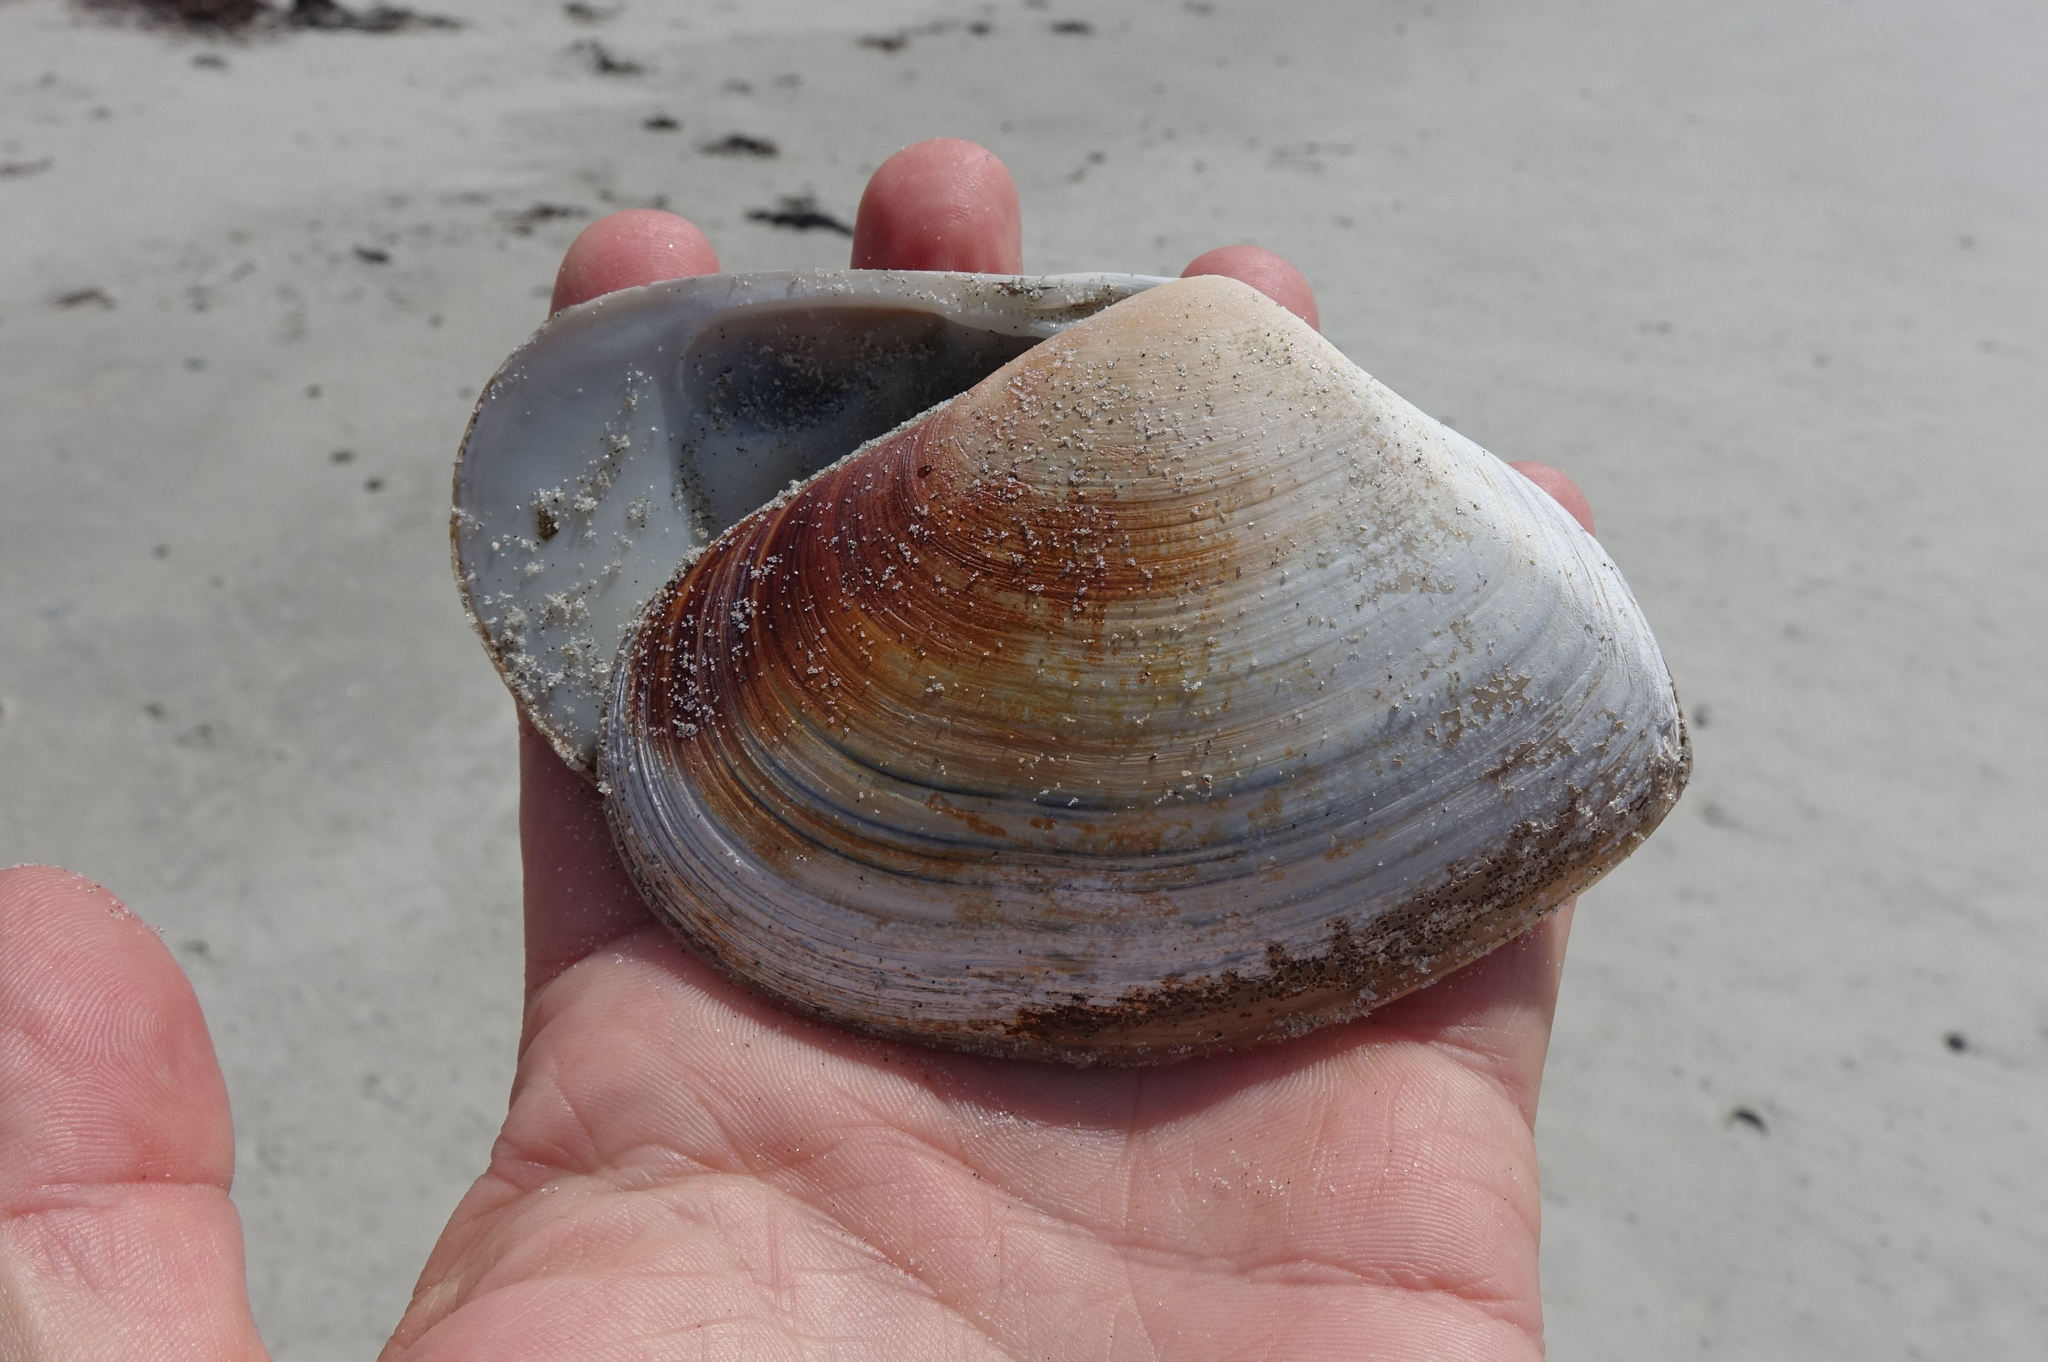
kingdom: Animalia
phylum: Mollusca
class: Bivalvia
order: Venerida
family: Mesodesmatidae
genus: Paphies
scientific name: Paphies donacina
